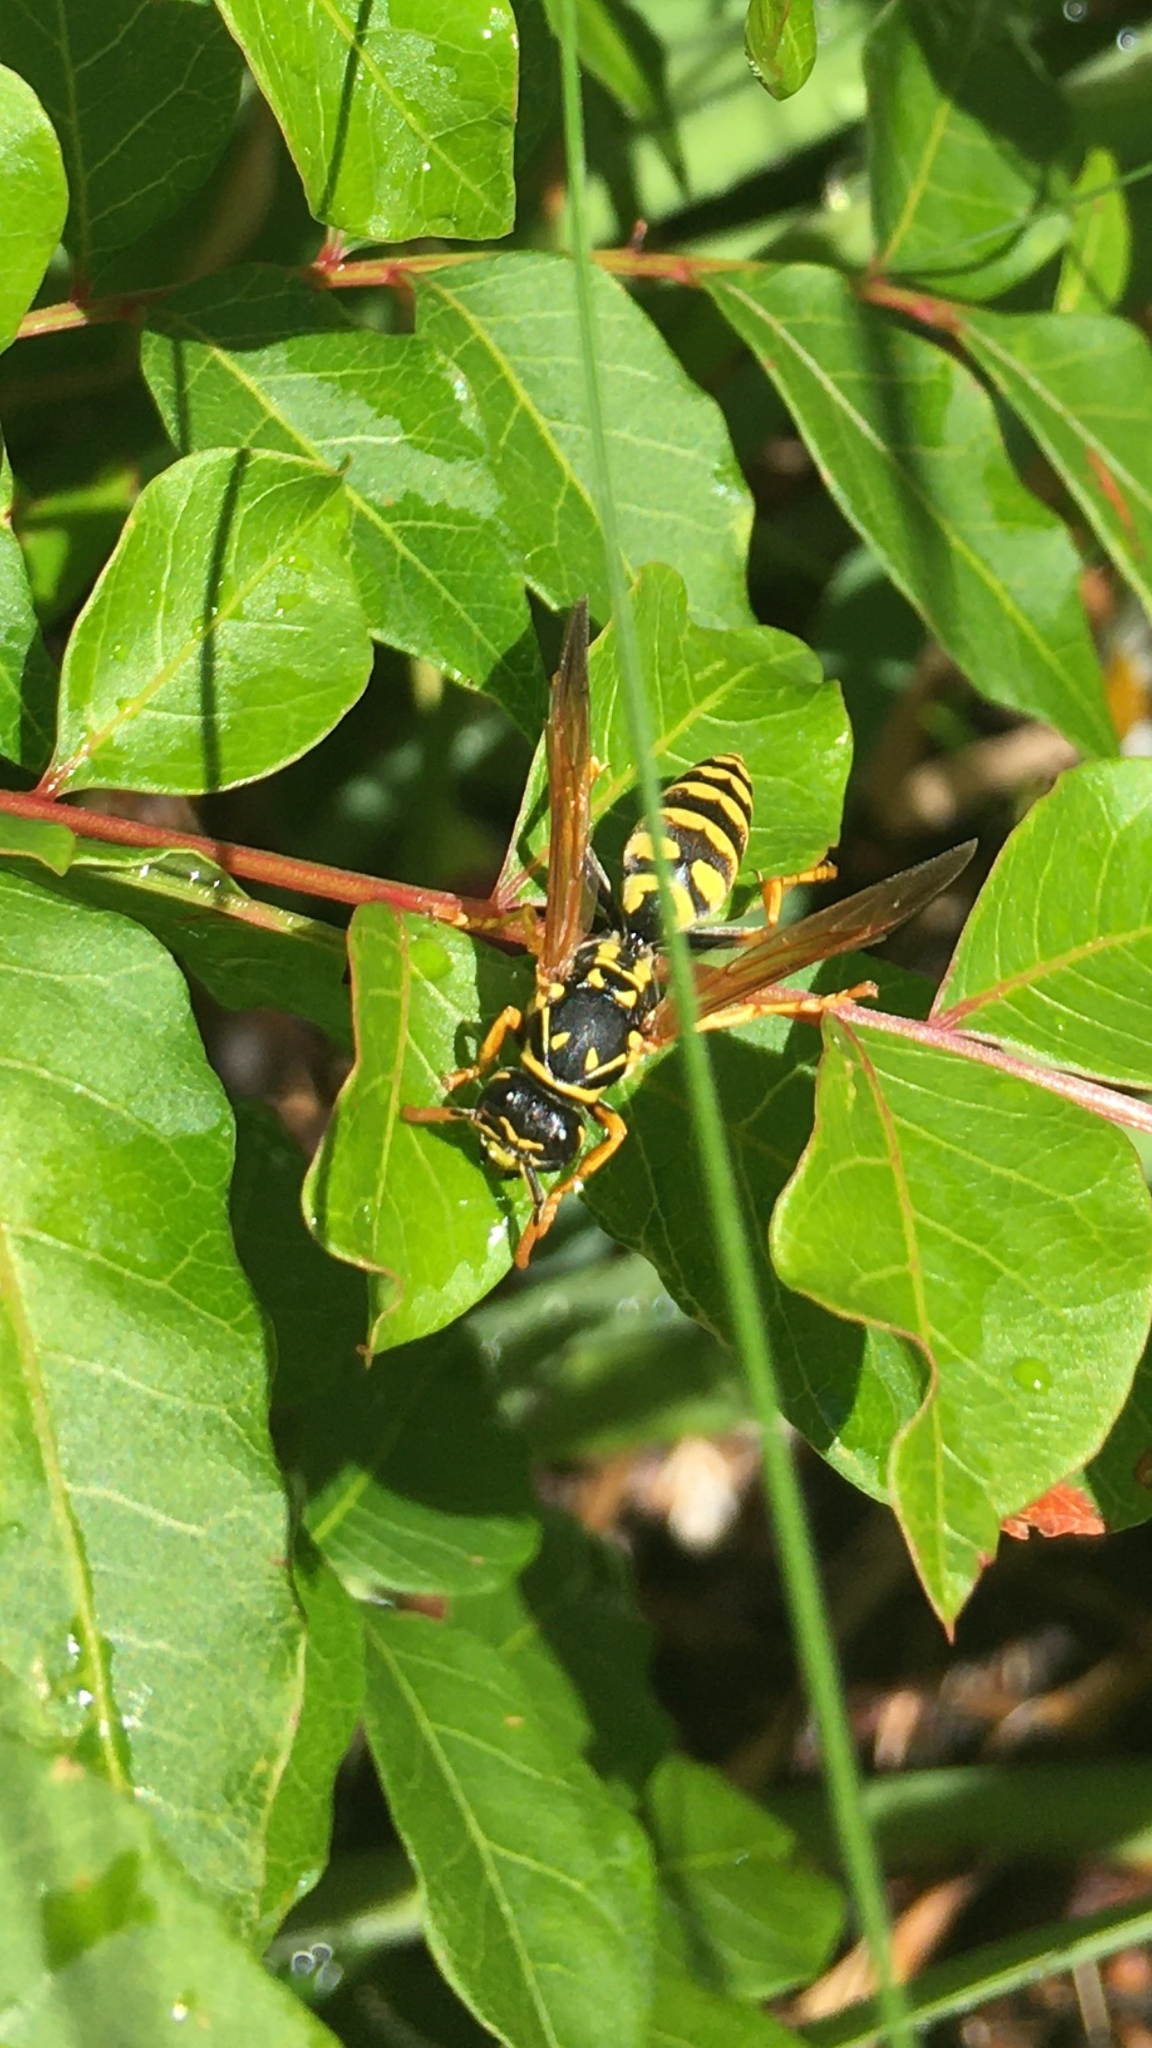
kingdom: Animalia
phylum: Arthropoda
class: Insecta
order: Hymenoptera
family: Eumenidae
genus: Polistes
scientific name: Polistes dominula
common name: Paper wasp
